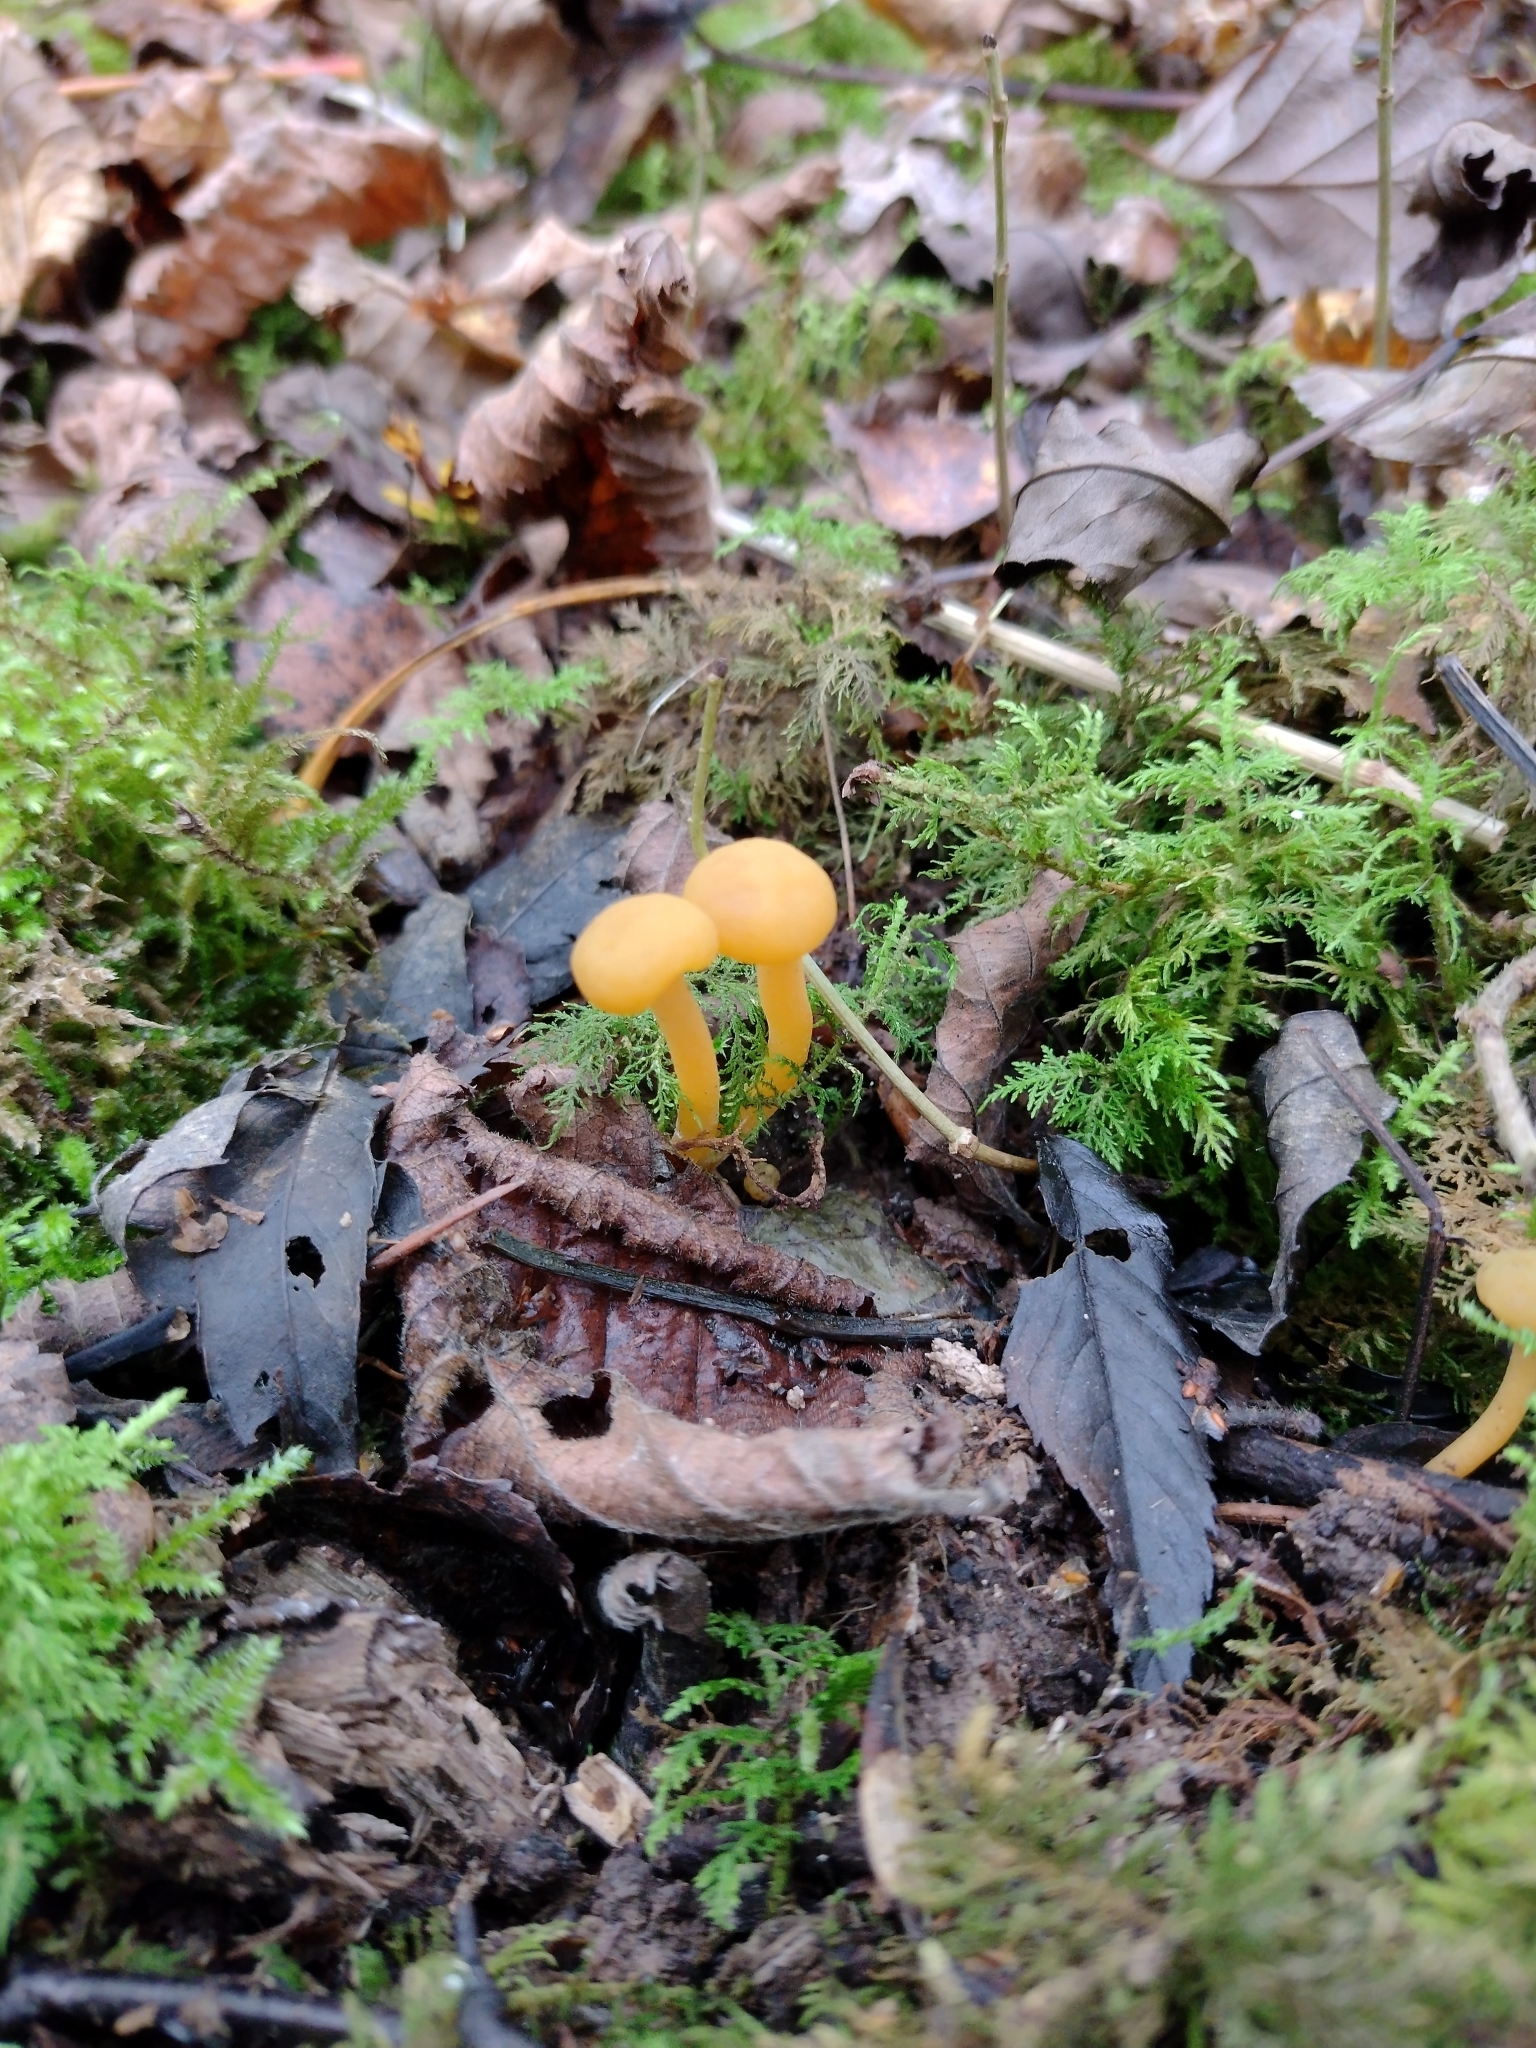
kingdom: Fungi
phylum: Ascomycota
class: Leotiomycetes
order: Leotiales
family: Leotiaceae
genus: Leotia
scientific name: Leotia lubrica
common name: Jellybaby
